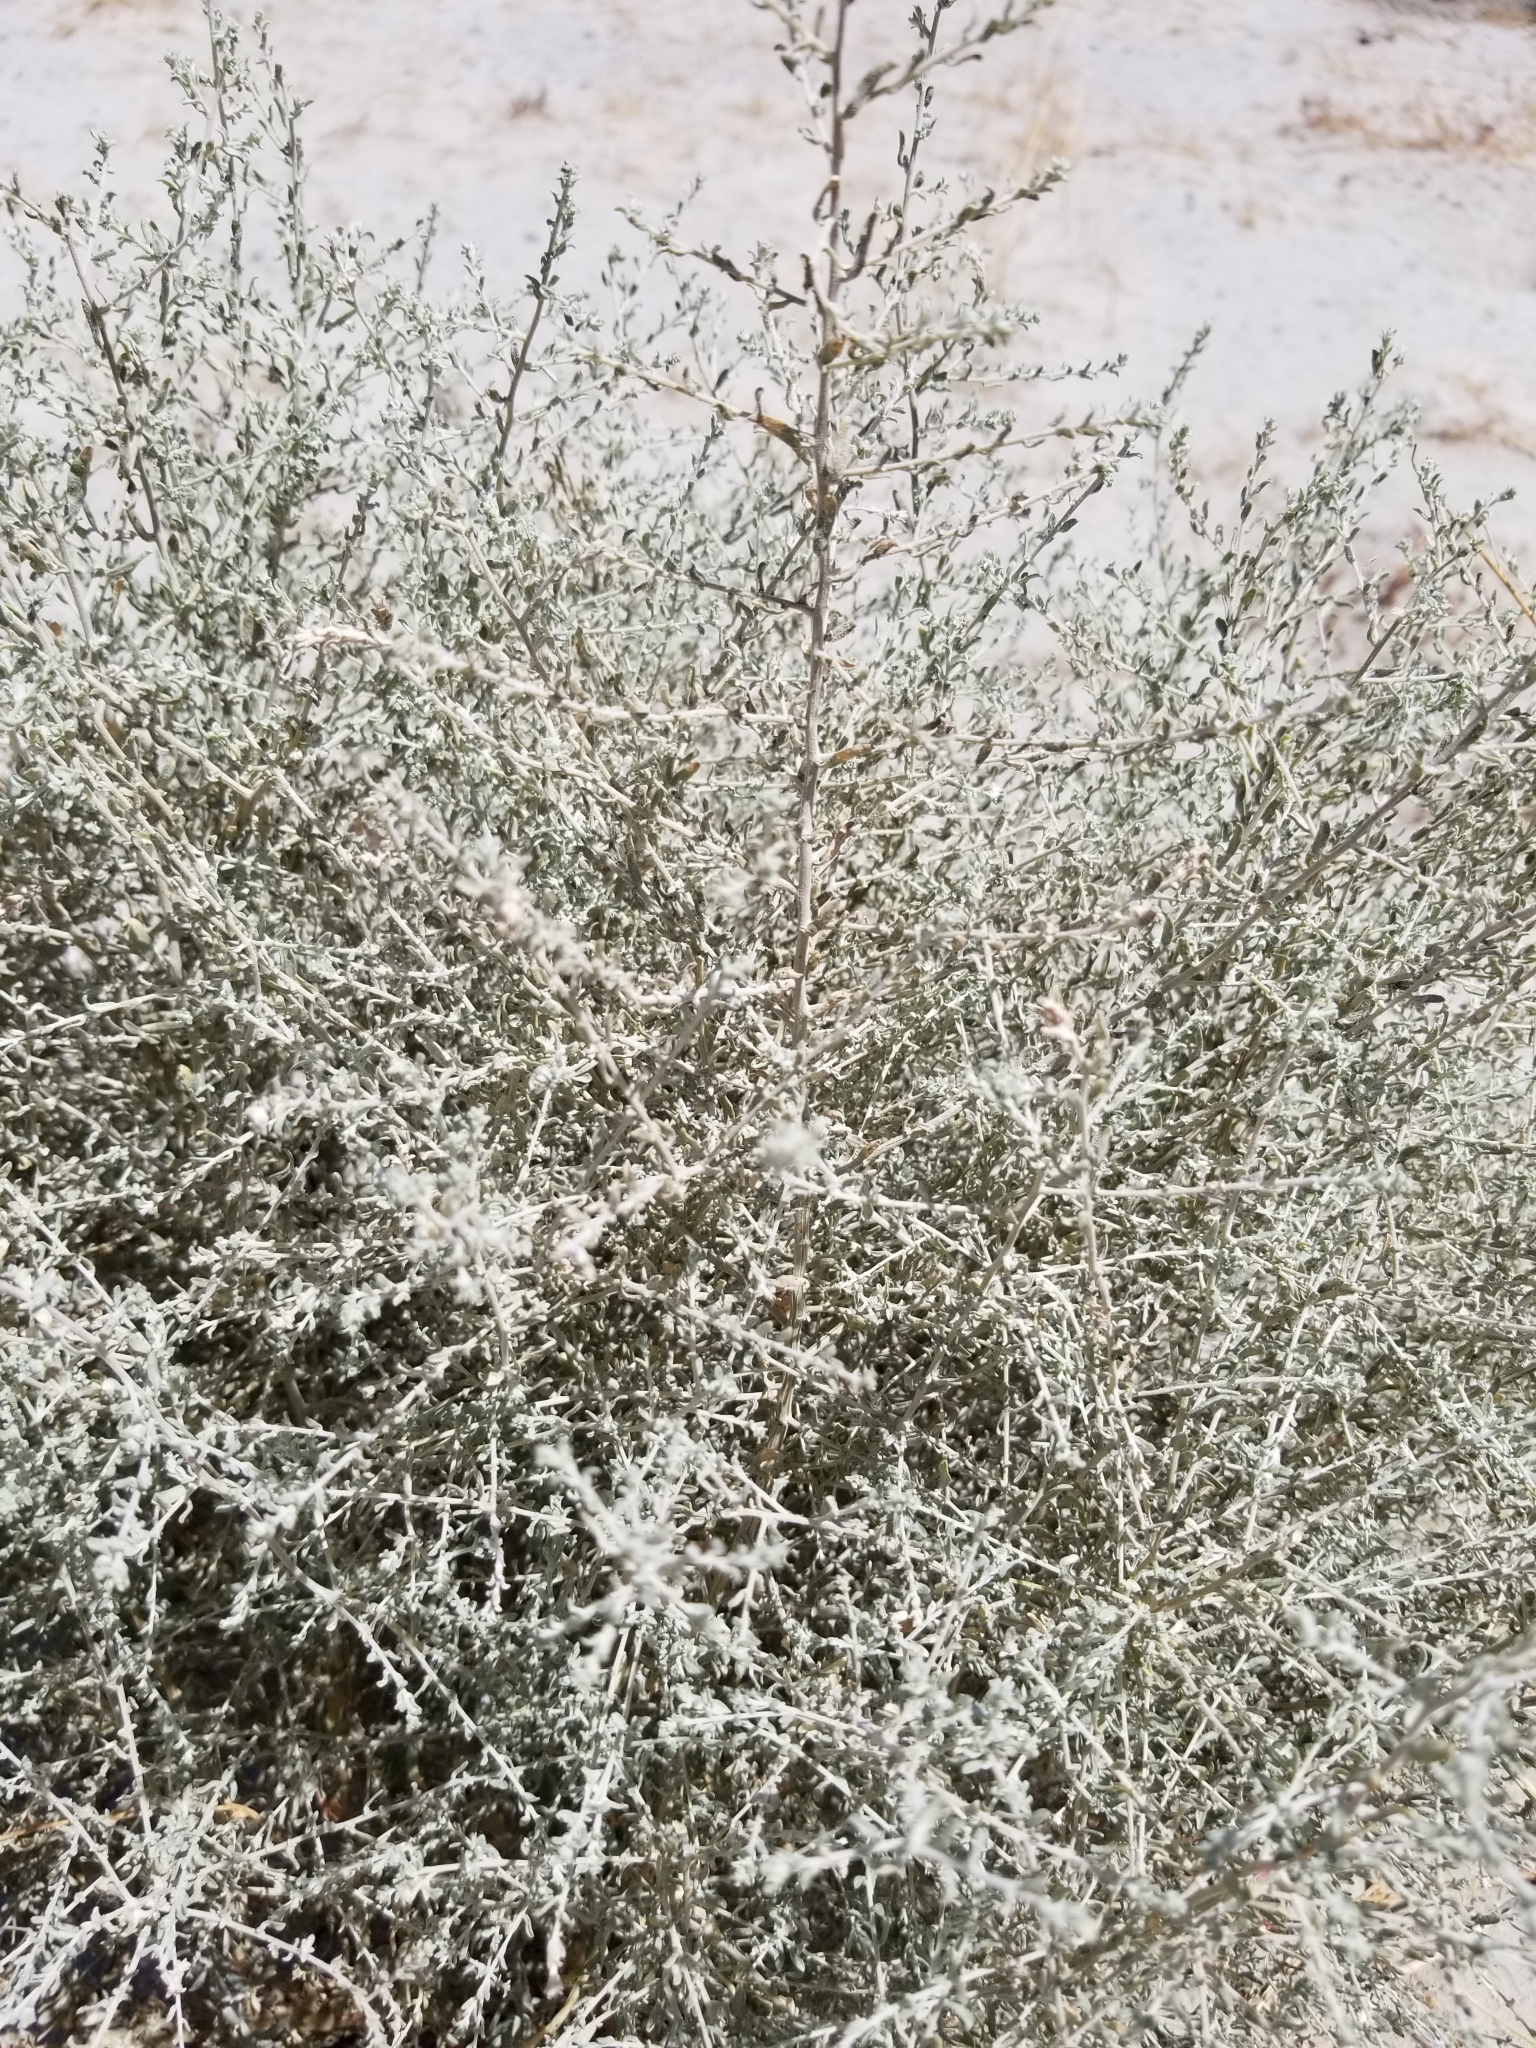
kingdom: Plantae
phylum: Tracheophyta
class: Magnoliopsida
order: Caryophyllales
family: Amaranthaceae
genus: Atriplex
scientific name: Atriplex polycarpa
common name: Desert saltbush
